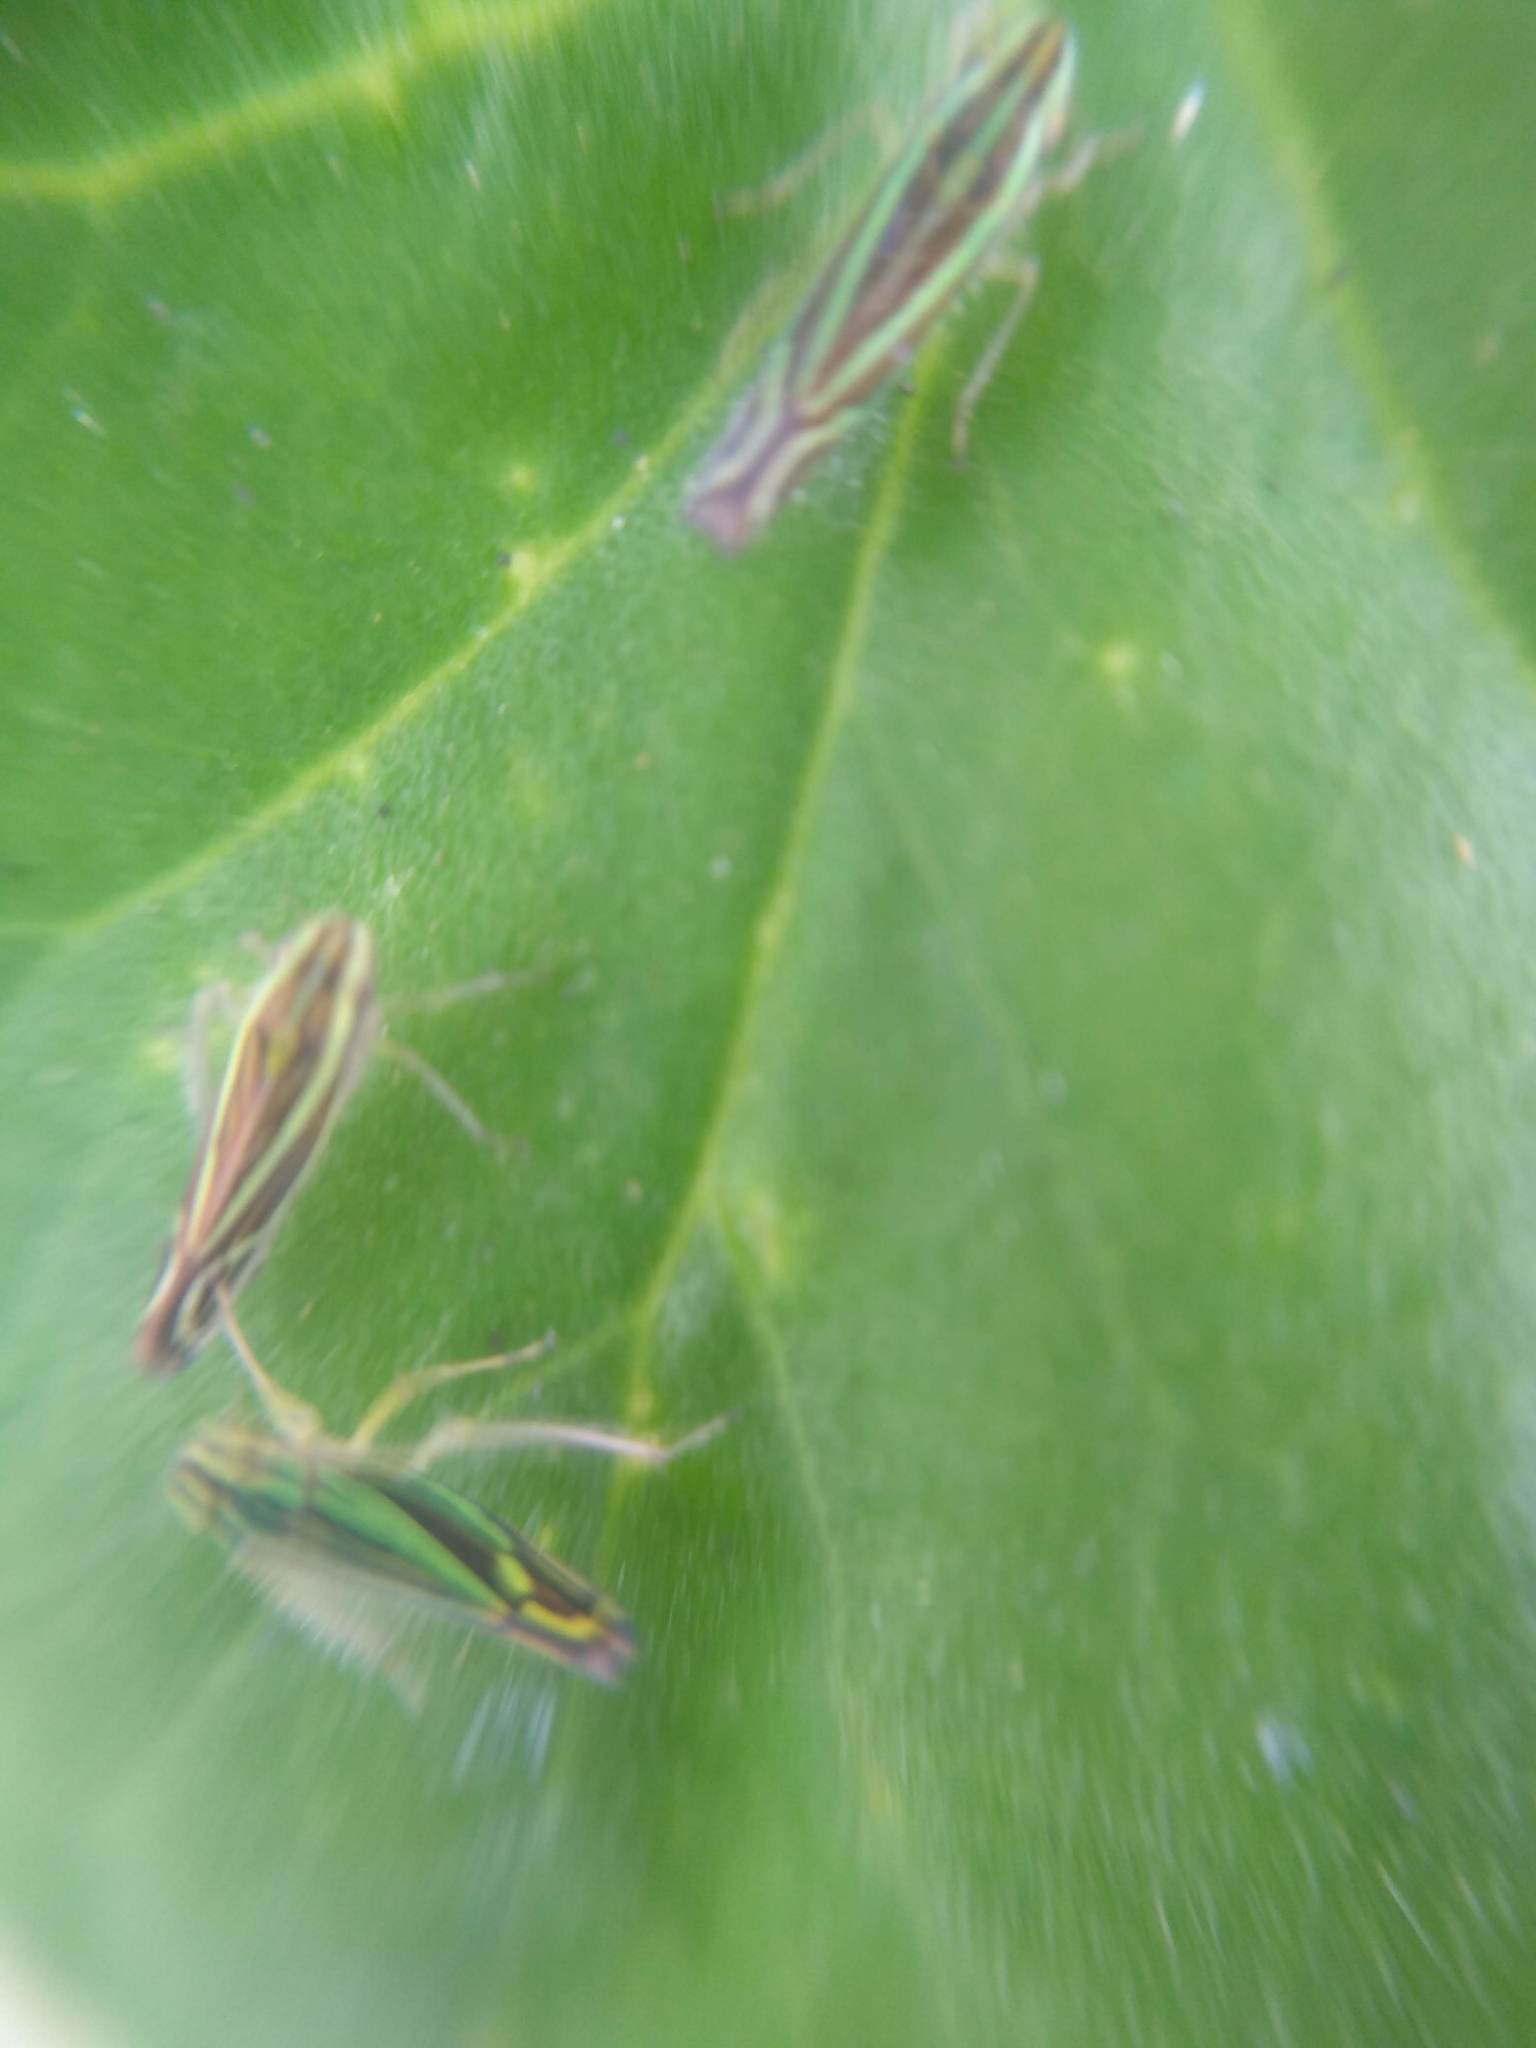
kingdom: Animalia
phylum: Arthropoda
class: Insecta
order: Hemiptera
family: Cicadellidae
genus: Sibovia
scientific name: Sibovia sagata
